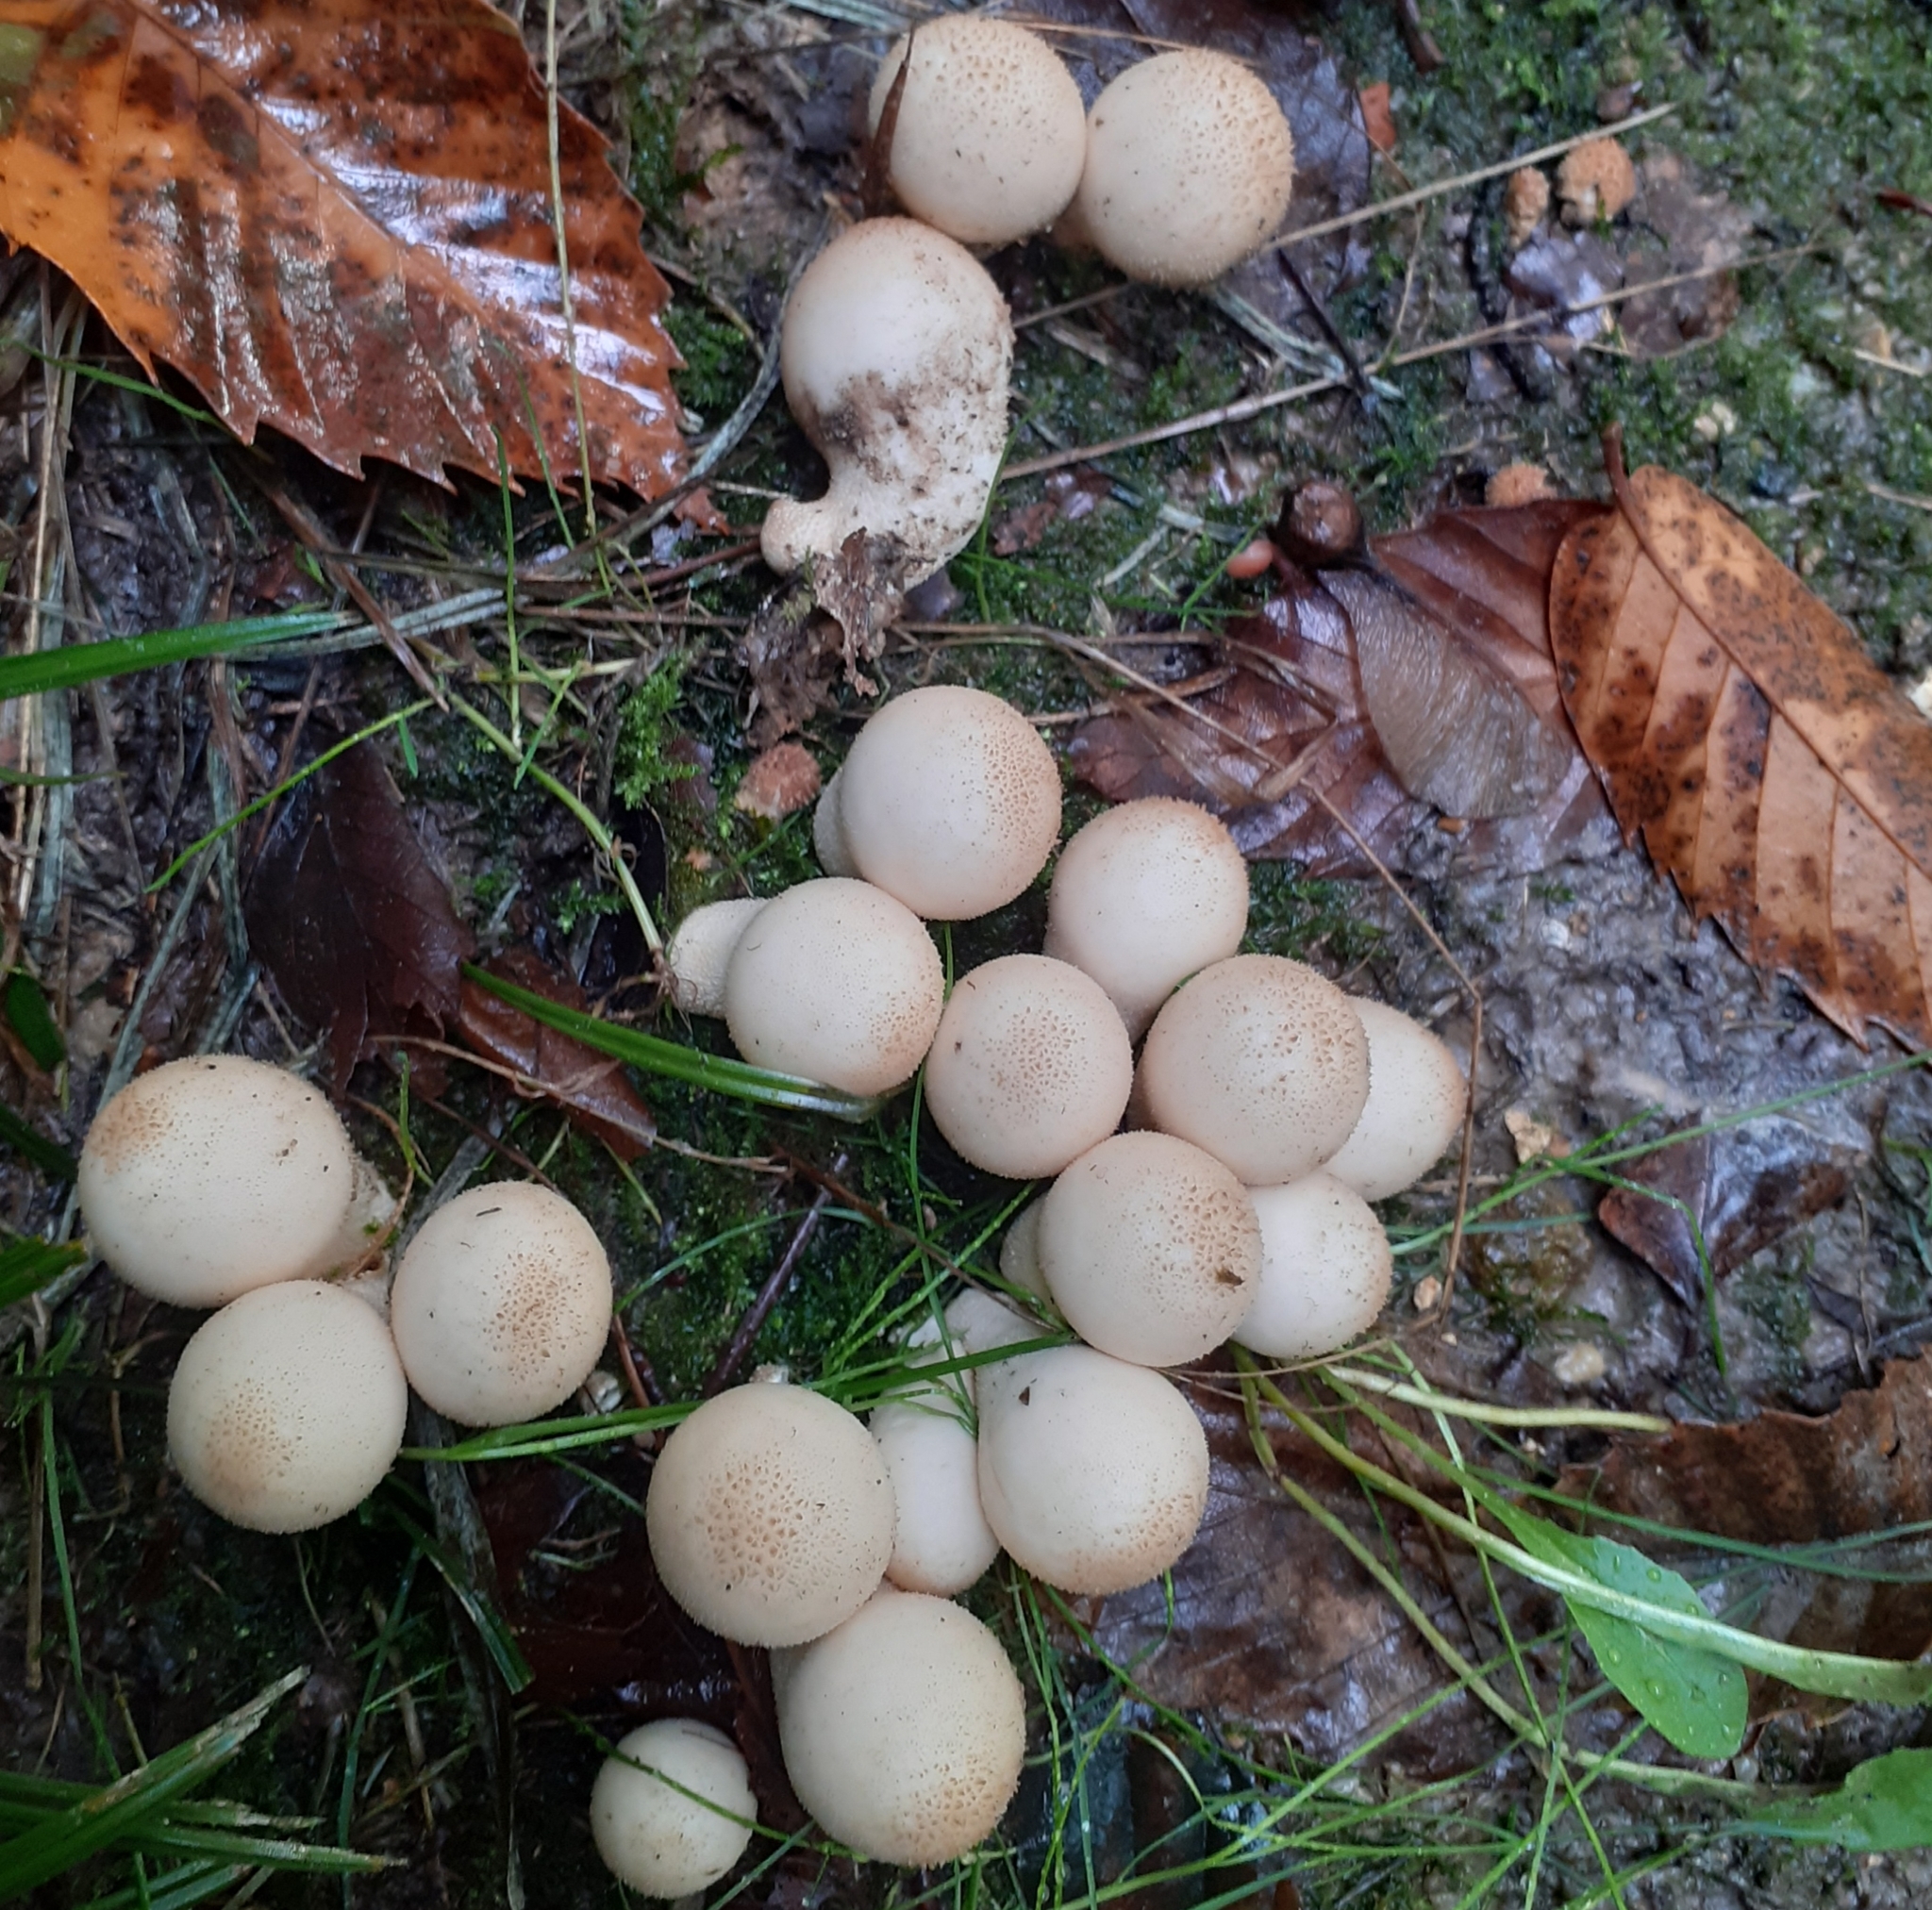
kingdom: Fungi
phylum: Basidiomycota
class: Agaricomycetes
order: Agaricales
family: Lycoperdaceae
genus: Apioperdon
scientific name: Apioperdon pyriforme
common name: Pear-shaped puffball
